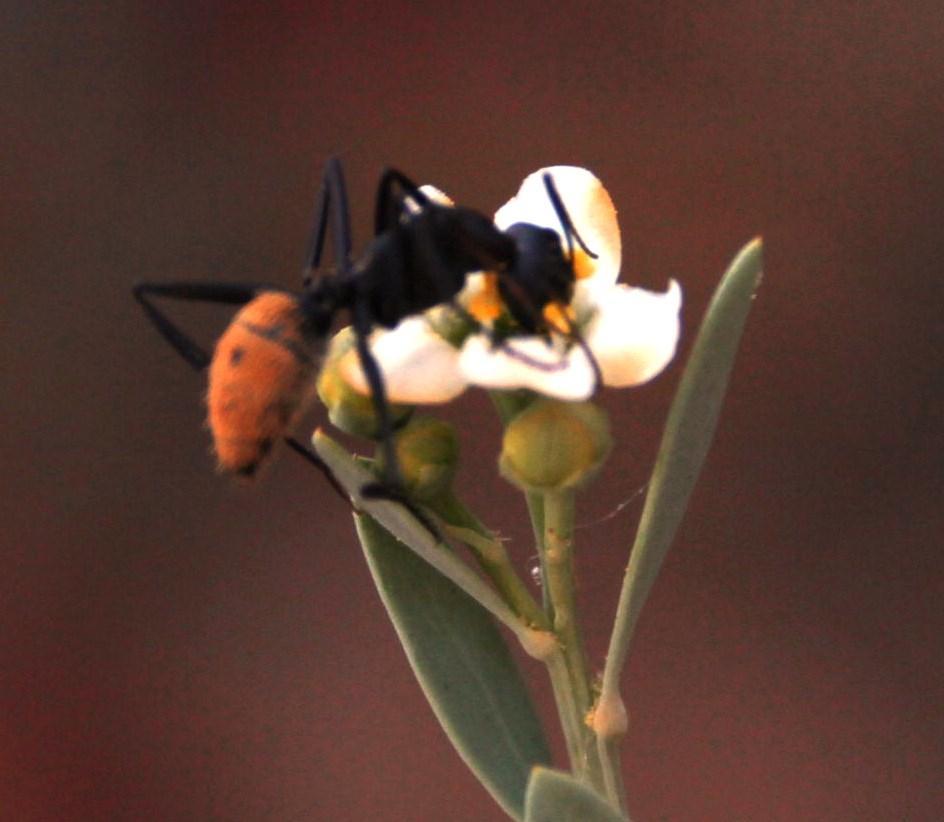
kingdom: Animalia
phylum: Arthropoda
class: Insecta
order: Hymenoptera
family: Formicidae
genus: Camponotus
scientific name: Camponotus fulvopilosus
